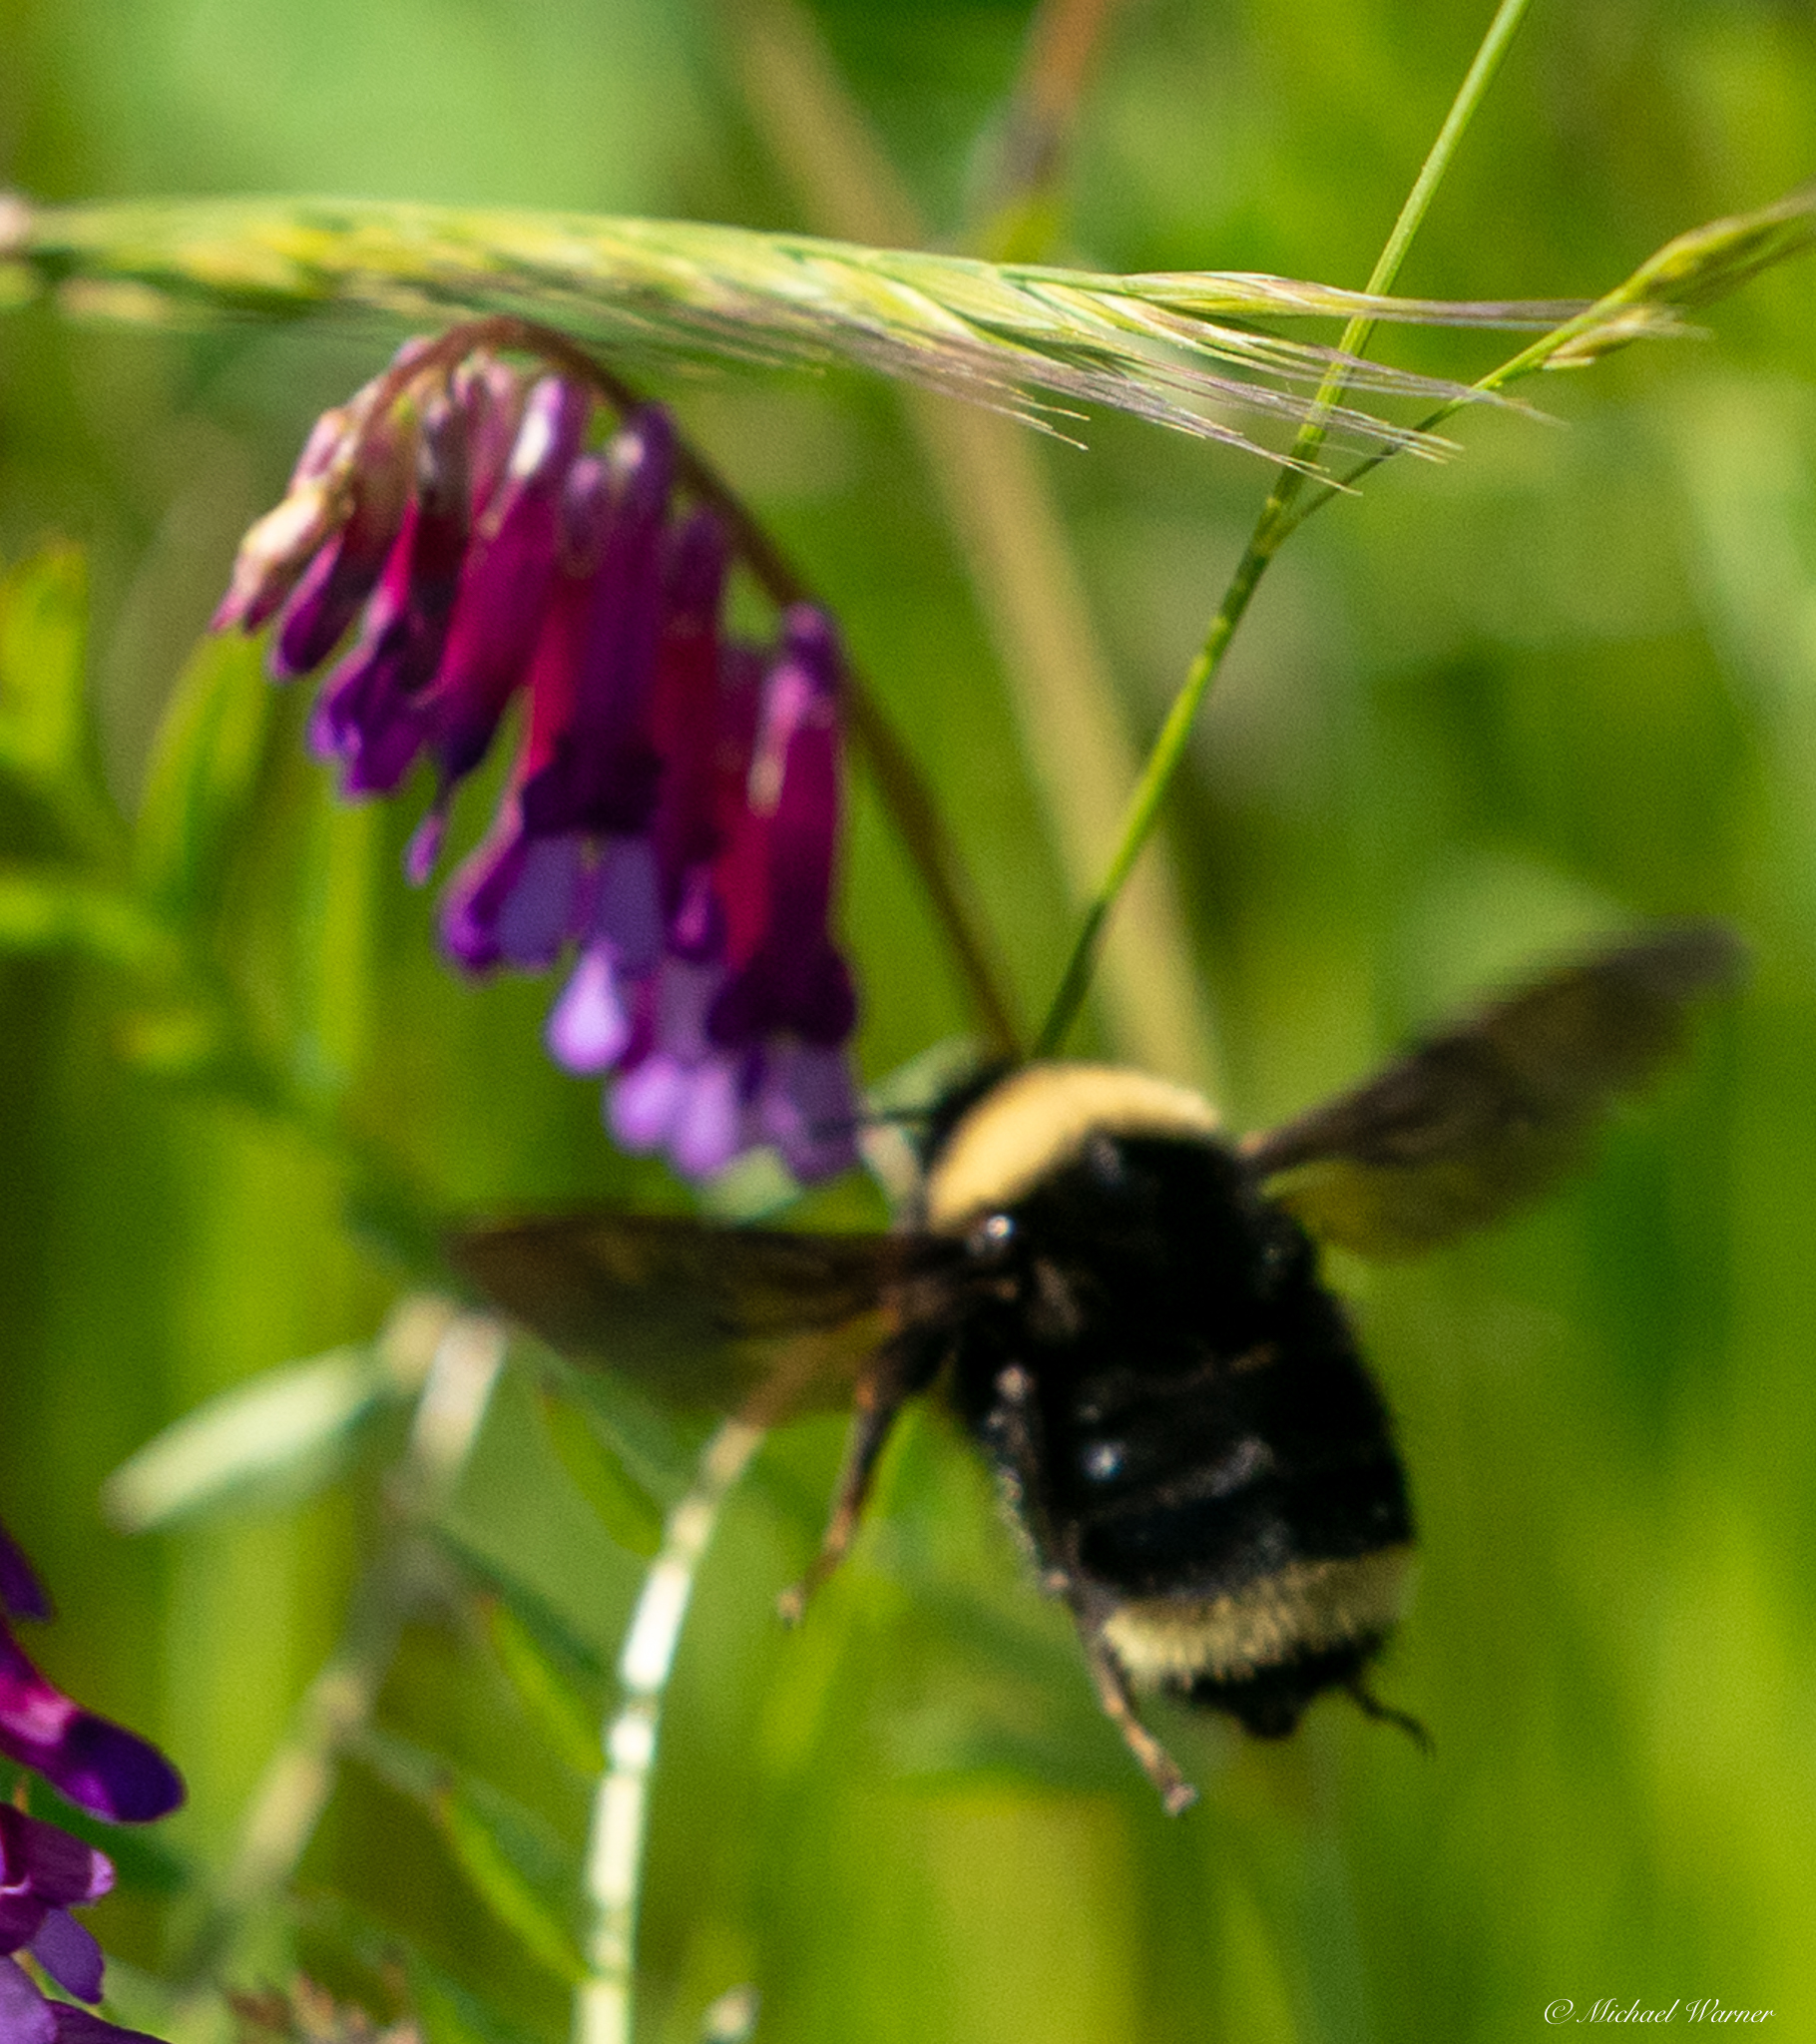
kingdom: Animalia
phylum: Arthropoda
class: Insecta
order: Hymenoptera
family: Apidae
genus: Bombus
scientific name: Bombus californicus
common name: California bumble bee
